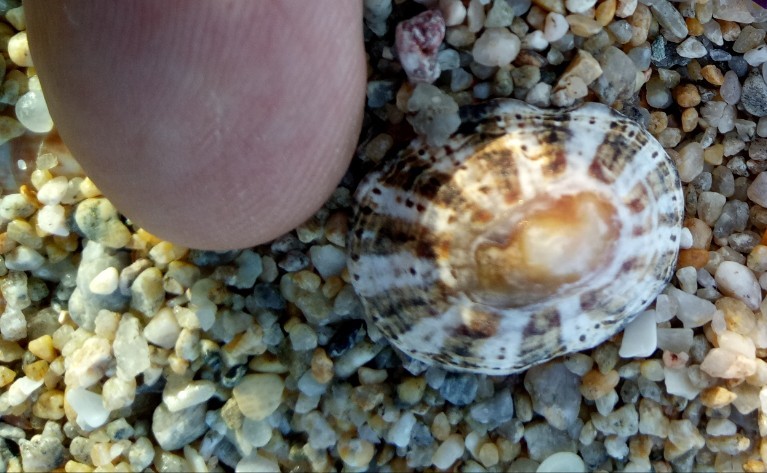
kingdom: Animalia
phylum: Mollusca
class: Gastropoda
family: Patellidae
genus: Patella
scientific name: Patella rustica
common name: Lusitanian limpet
